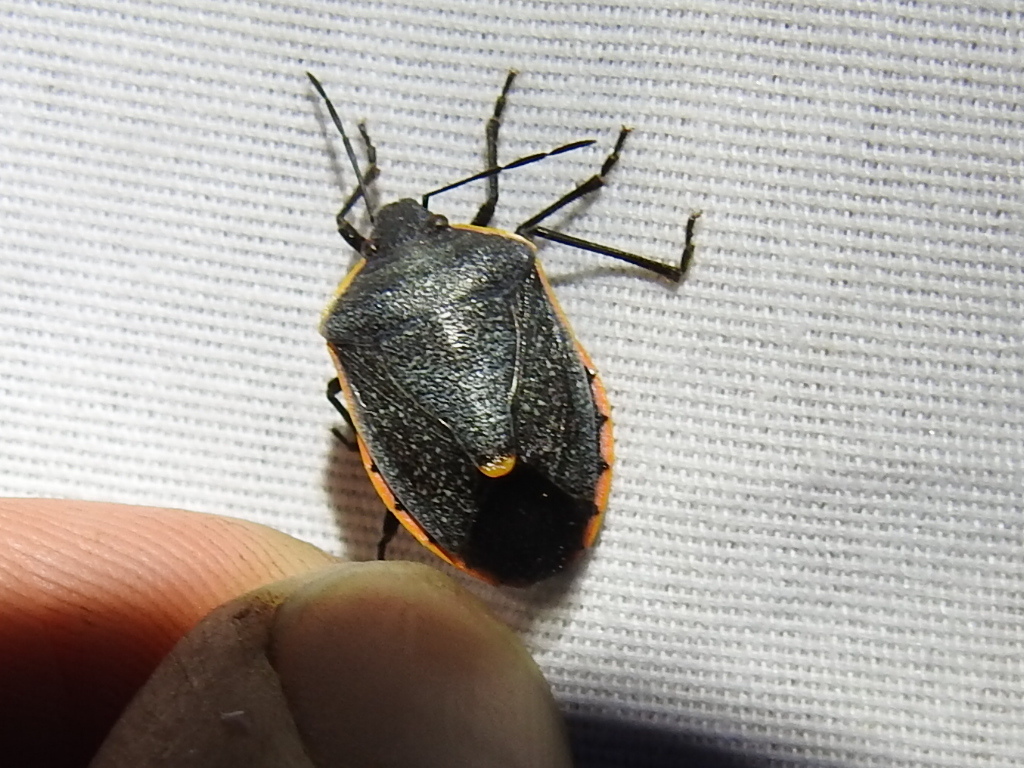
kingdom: Animalia
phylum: Arthropoda
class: Insecta
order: Hemiptera
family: Pentatomidae
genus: Chlorochroa
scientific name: Chlorochroa ligata
